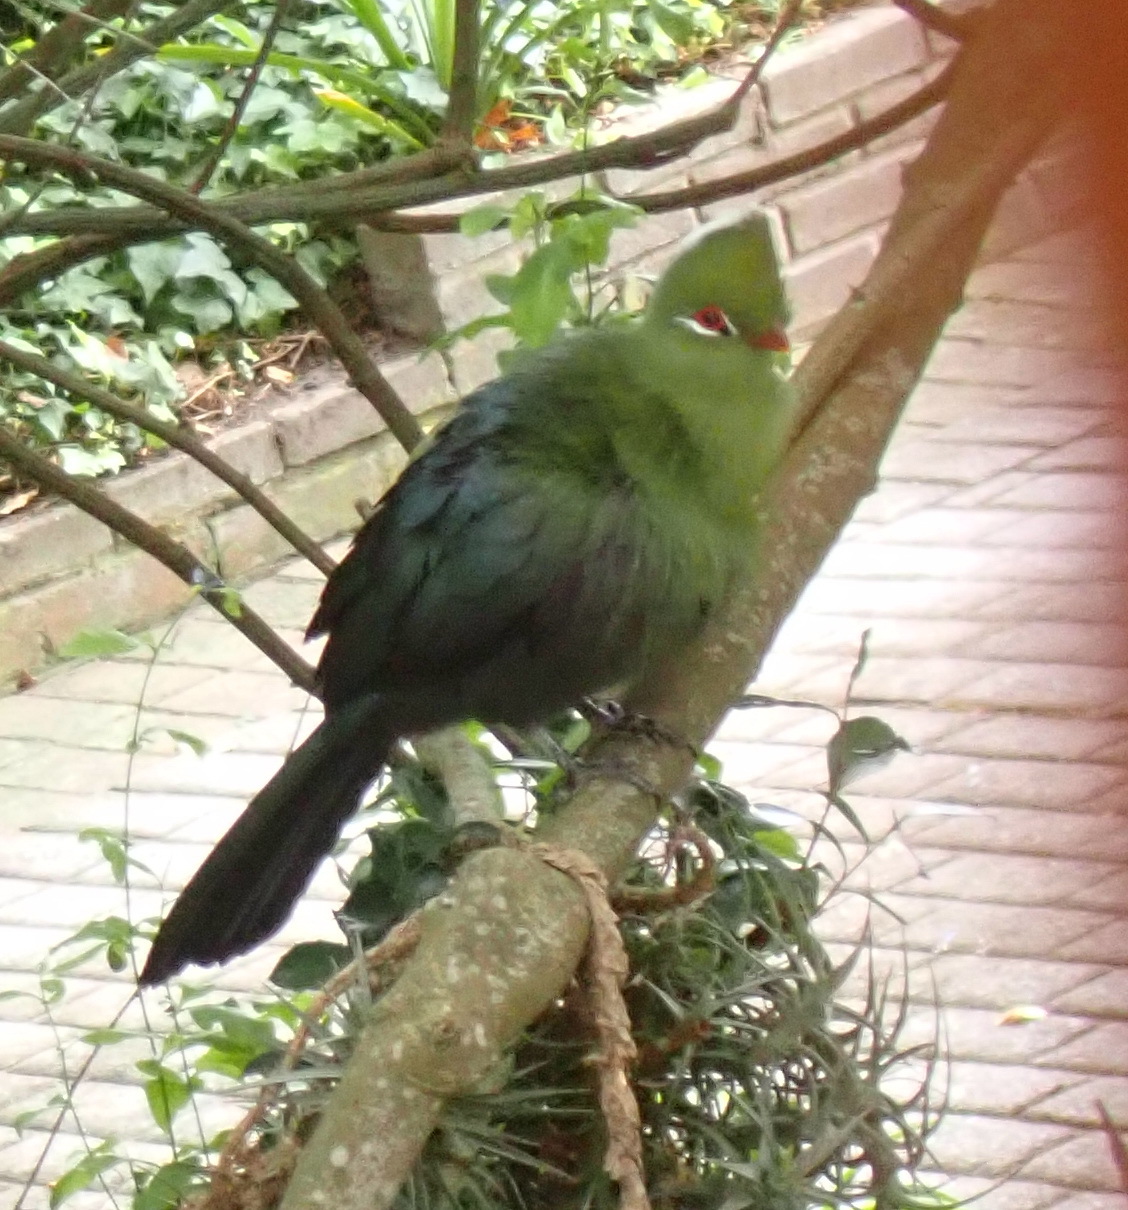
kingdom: Animalia
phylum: Chordata
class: Aves
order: Musophagiformes
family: Musophagidae
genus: Tauraco
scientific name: Tauraco corythaix
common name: Knysna turaco
